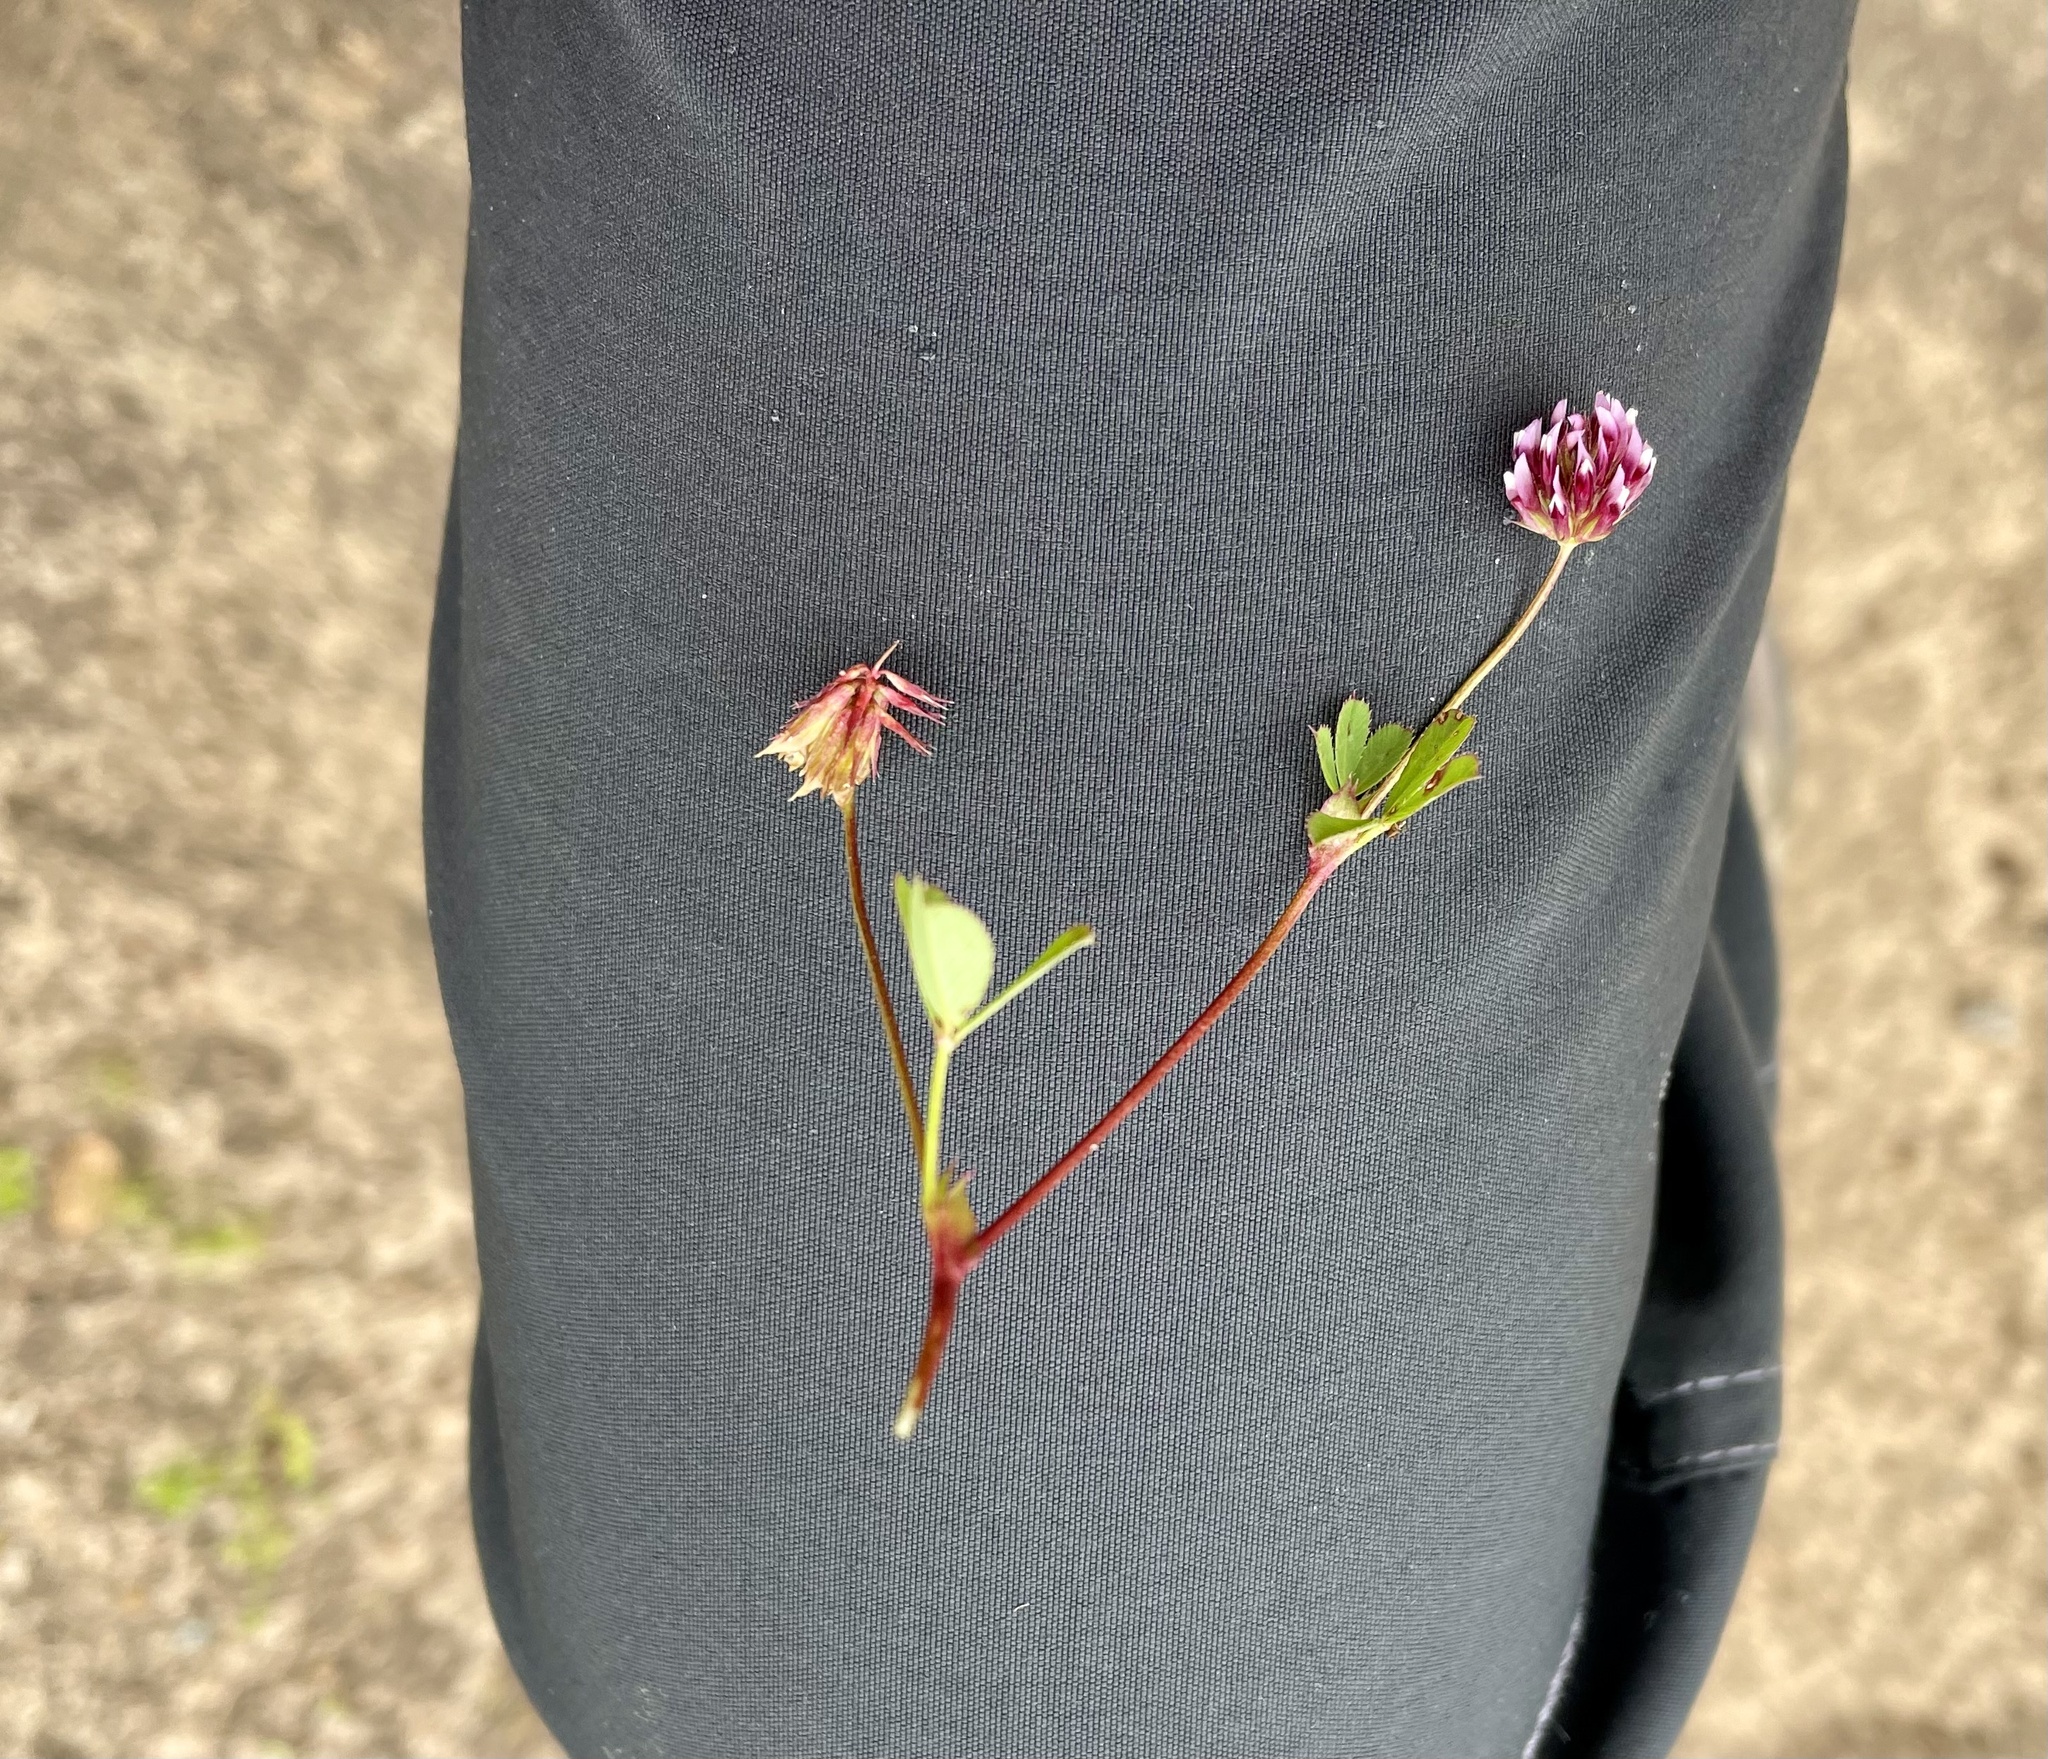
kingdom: Plantae
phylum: Tracheophyta
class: Magnoliopsida
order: Fabales
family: Fabaceae
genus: Trifolium
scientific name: Trifolium gracilentum
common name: Slender clover
